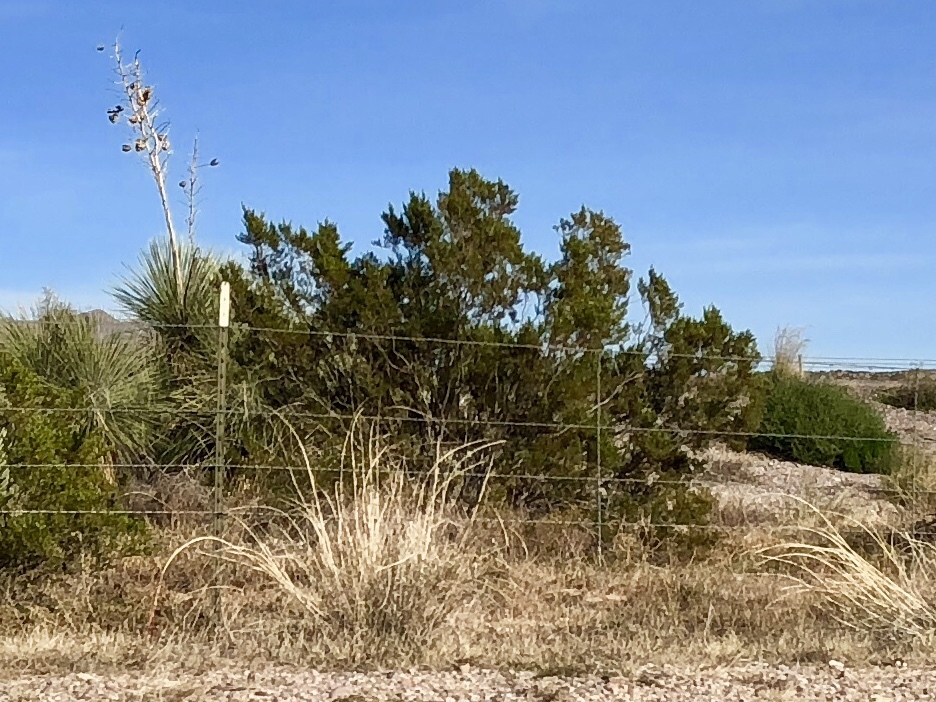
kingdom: Plantae
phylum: Tracheophyta
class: Magnoliopsida
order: Zygophyllales
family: Zygophyllaceae
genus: Larrea
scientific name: Larrea tridentata
